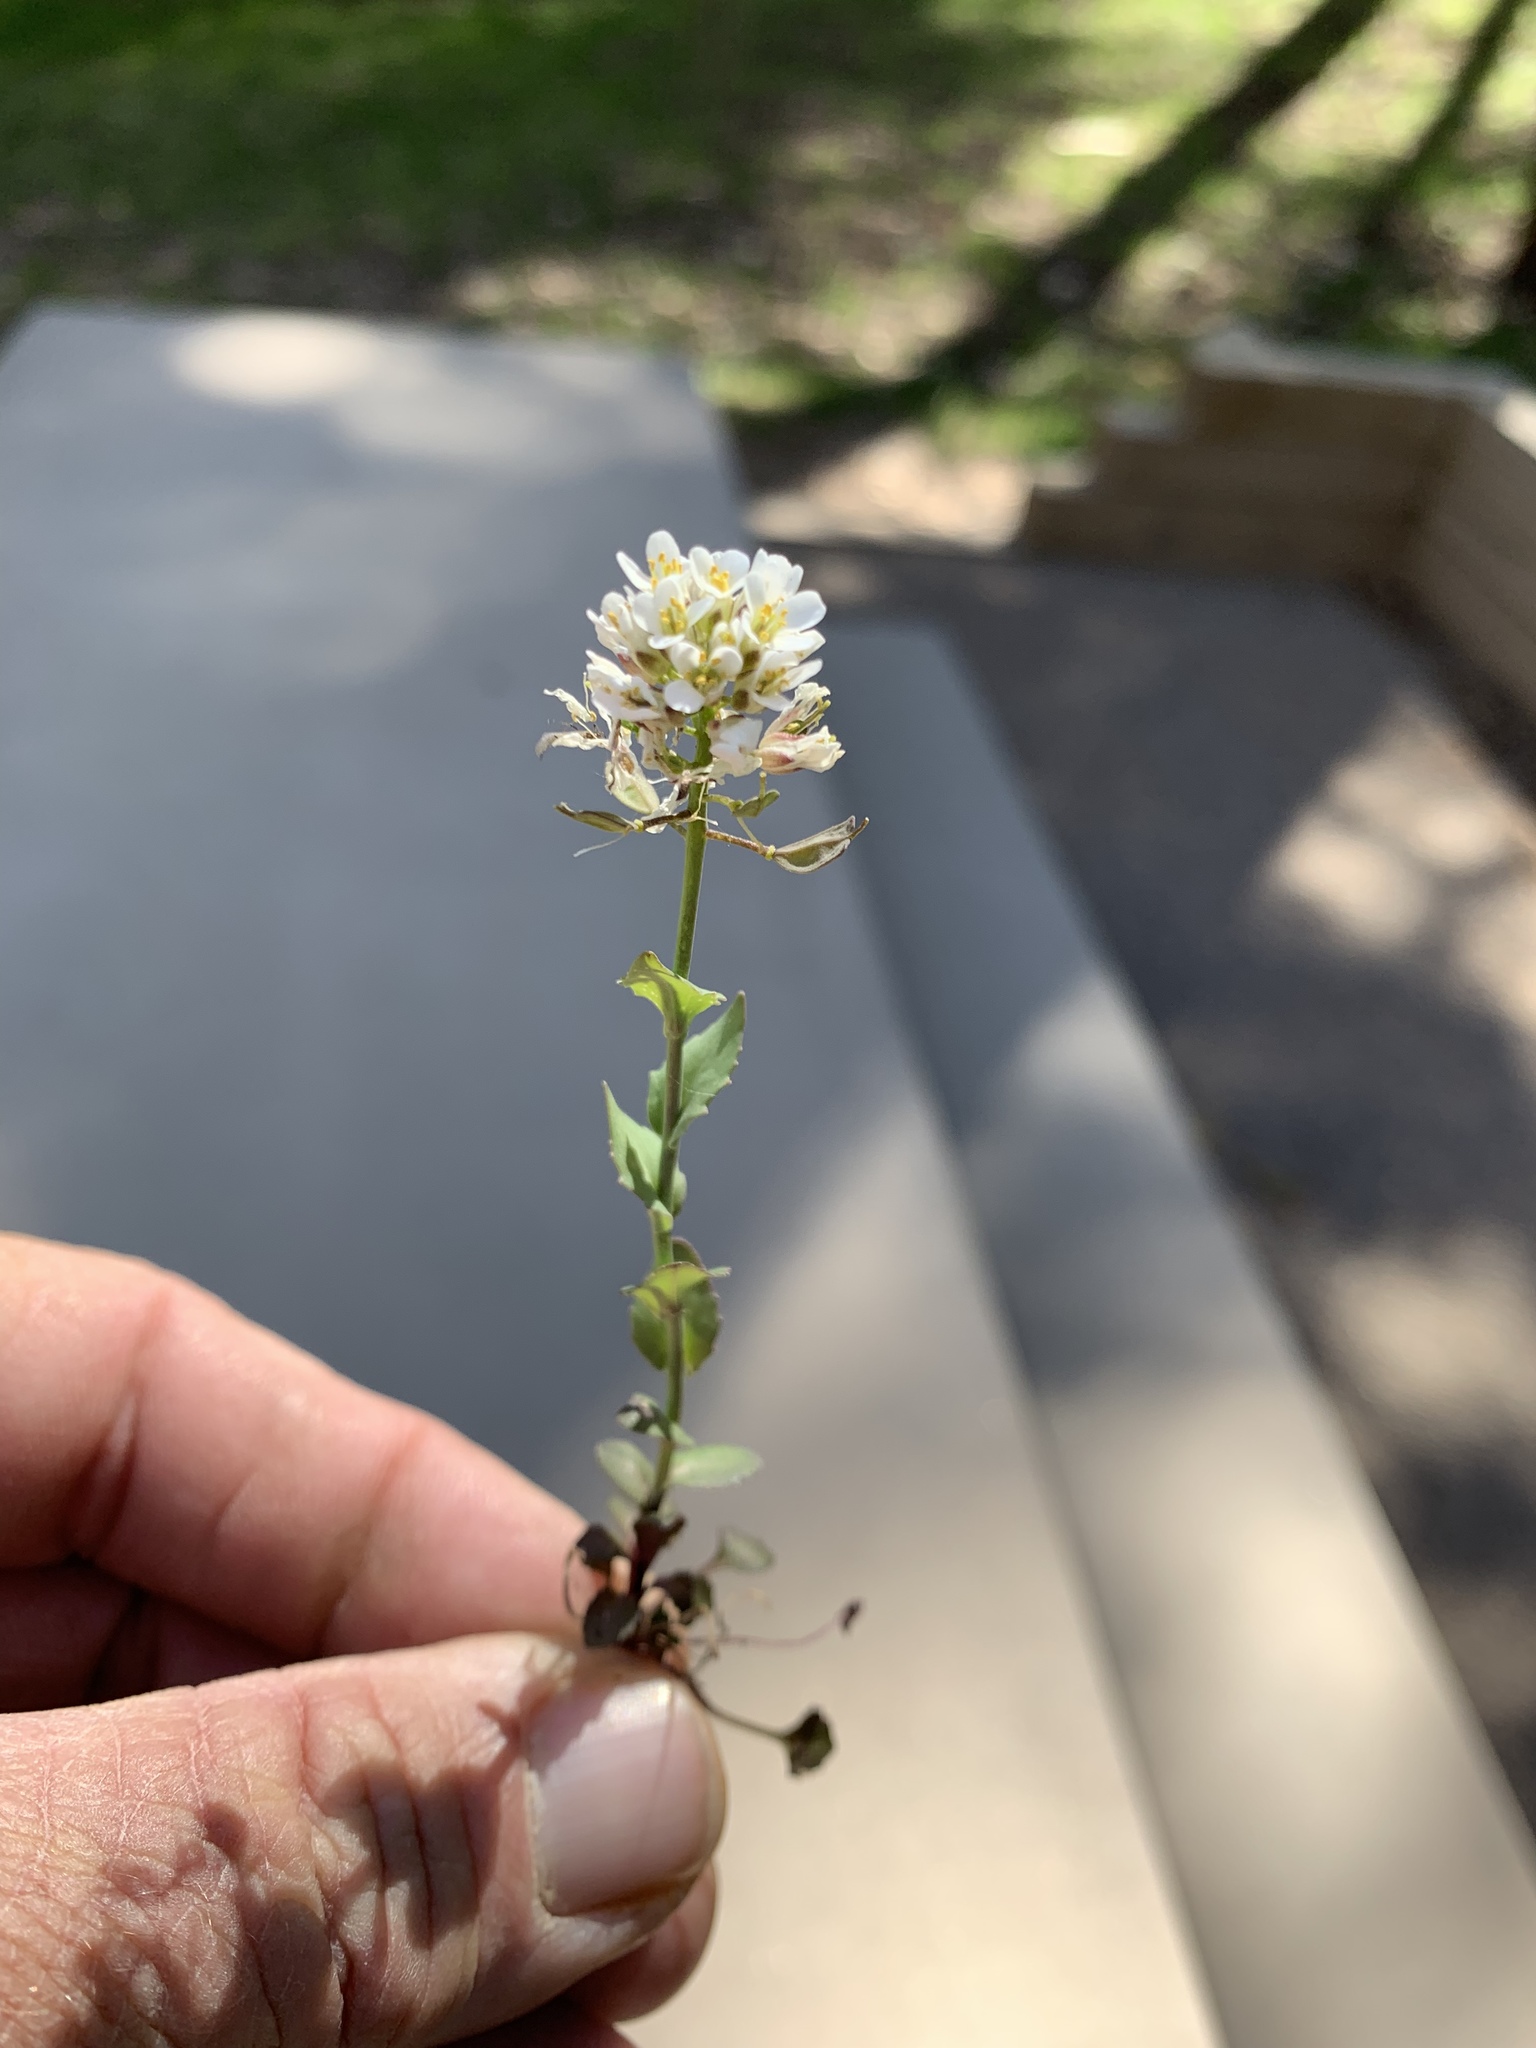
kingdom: Plantae
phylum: Tracheophyta
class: Magnoliopsida
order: Brassicales
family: Brassicaceae
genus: Noccaea
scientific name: Noccaea fendleri
